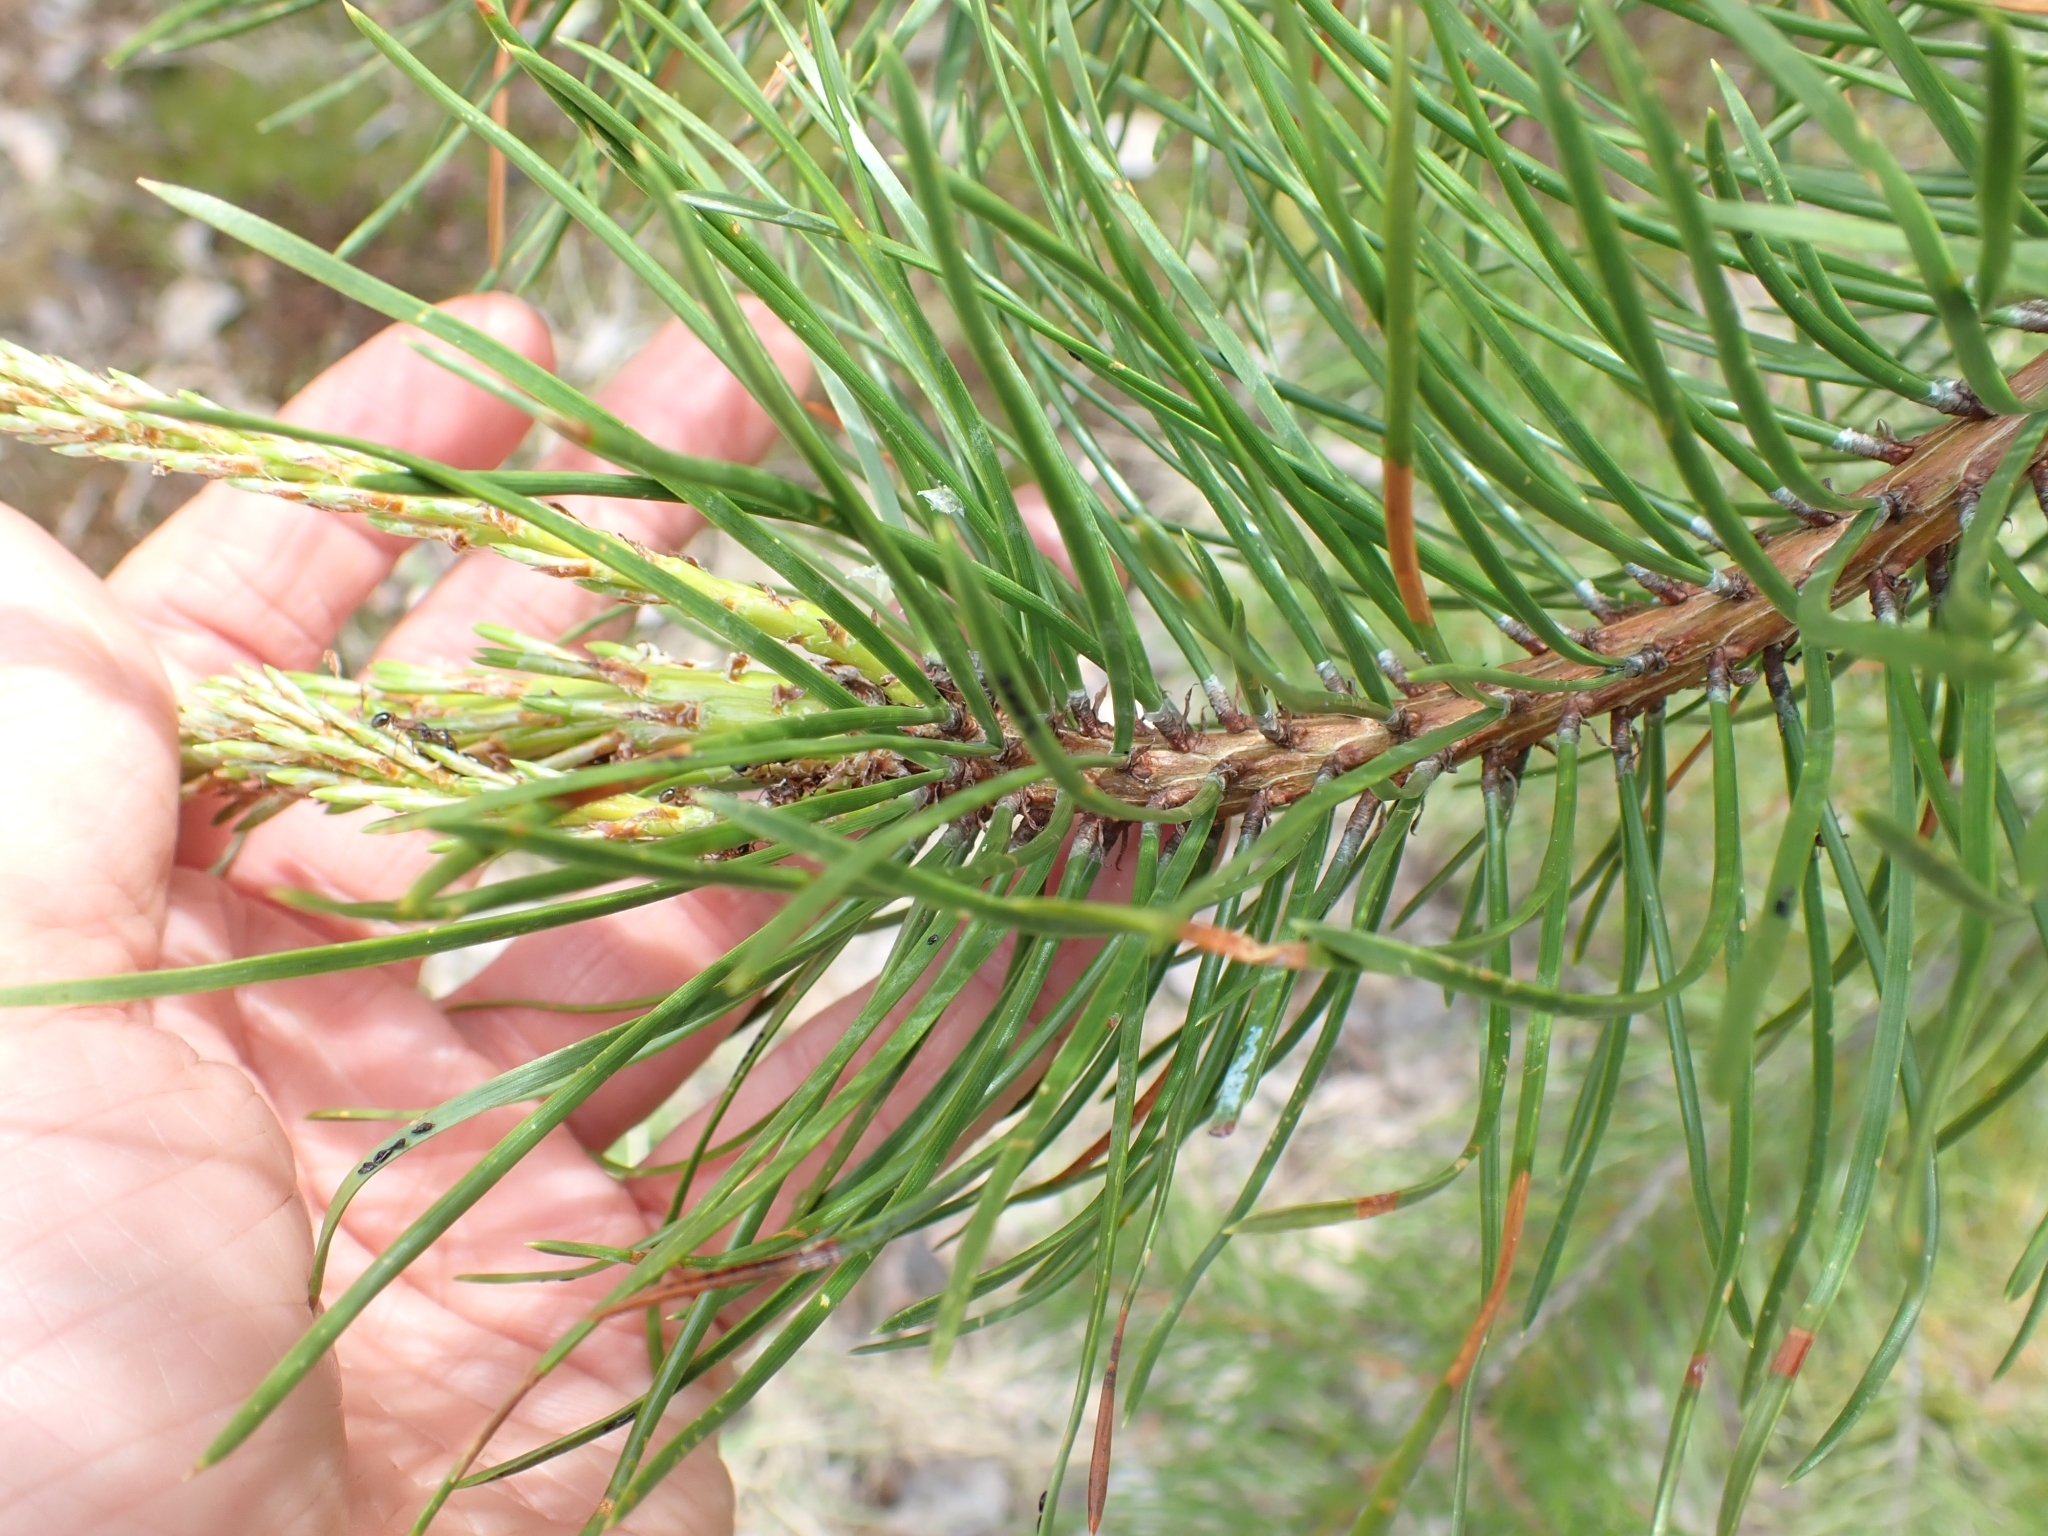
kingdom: Plantae
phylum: Tracheophyta
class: Pinopsida
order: Pinales
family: Pinaceae
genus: Pinus
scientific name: Pinus contorta
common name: Lodgepole pine
